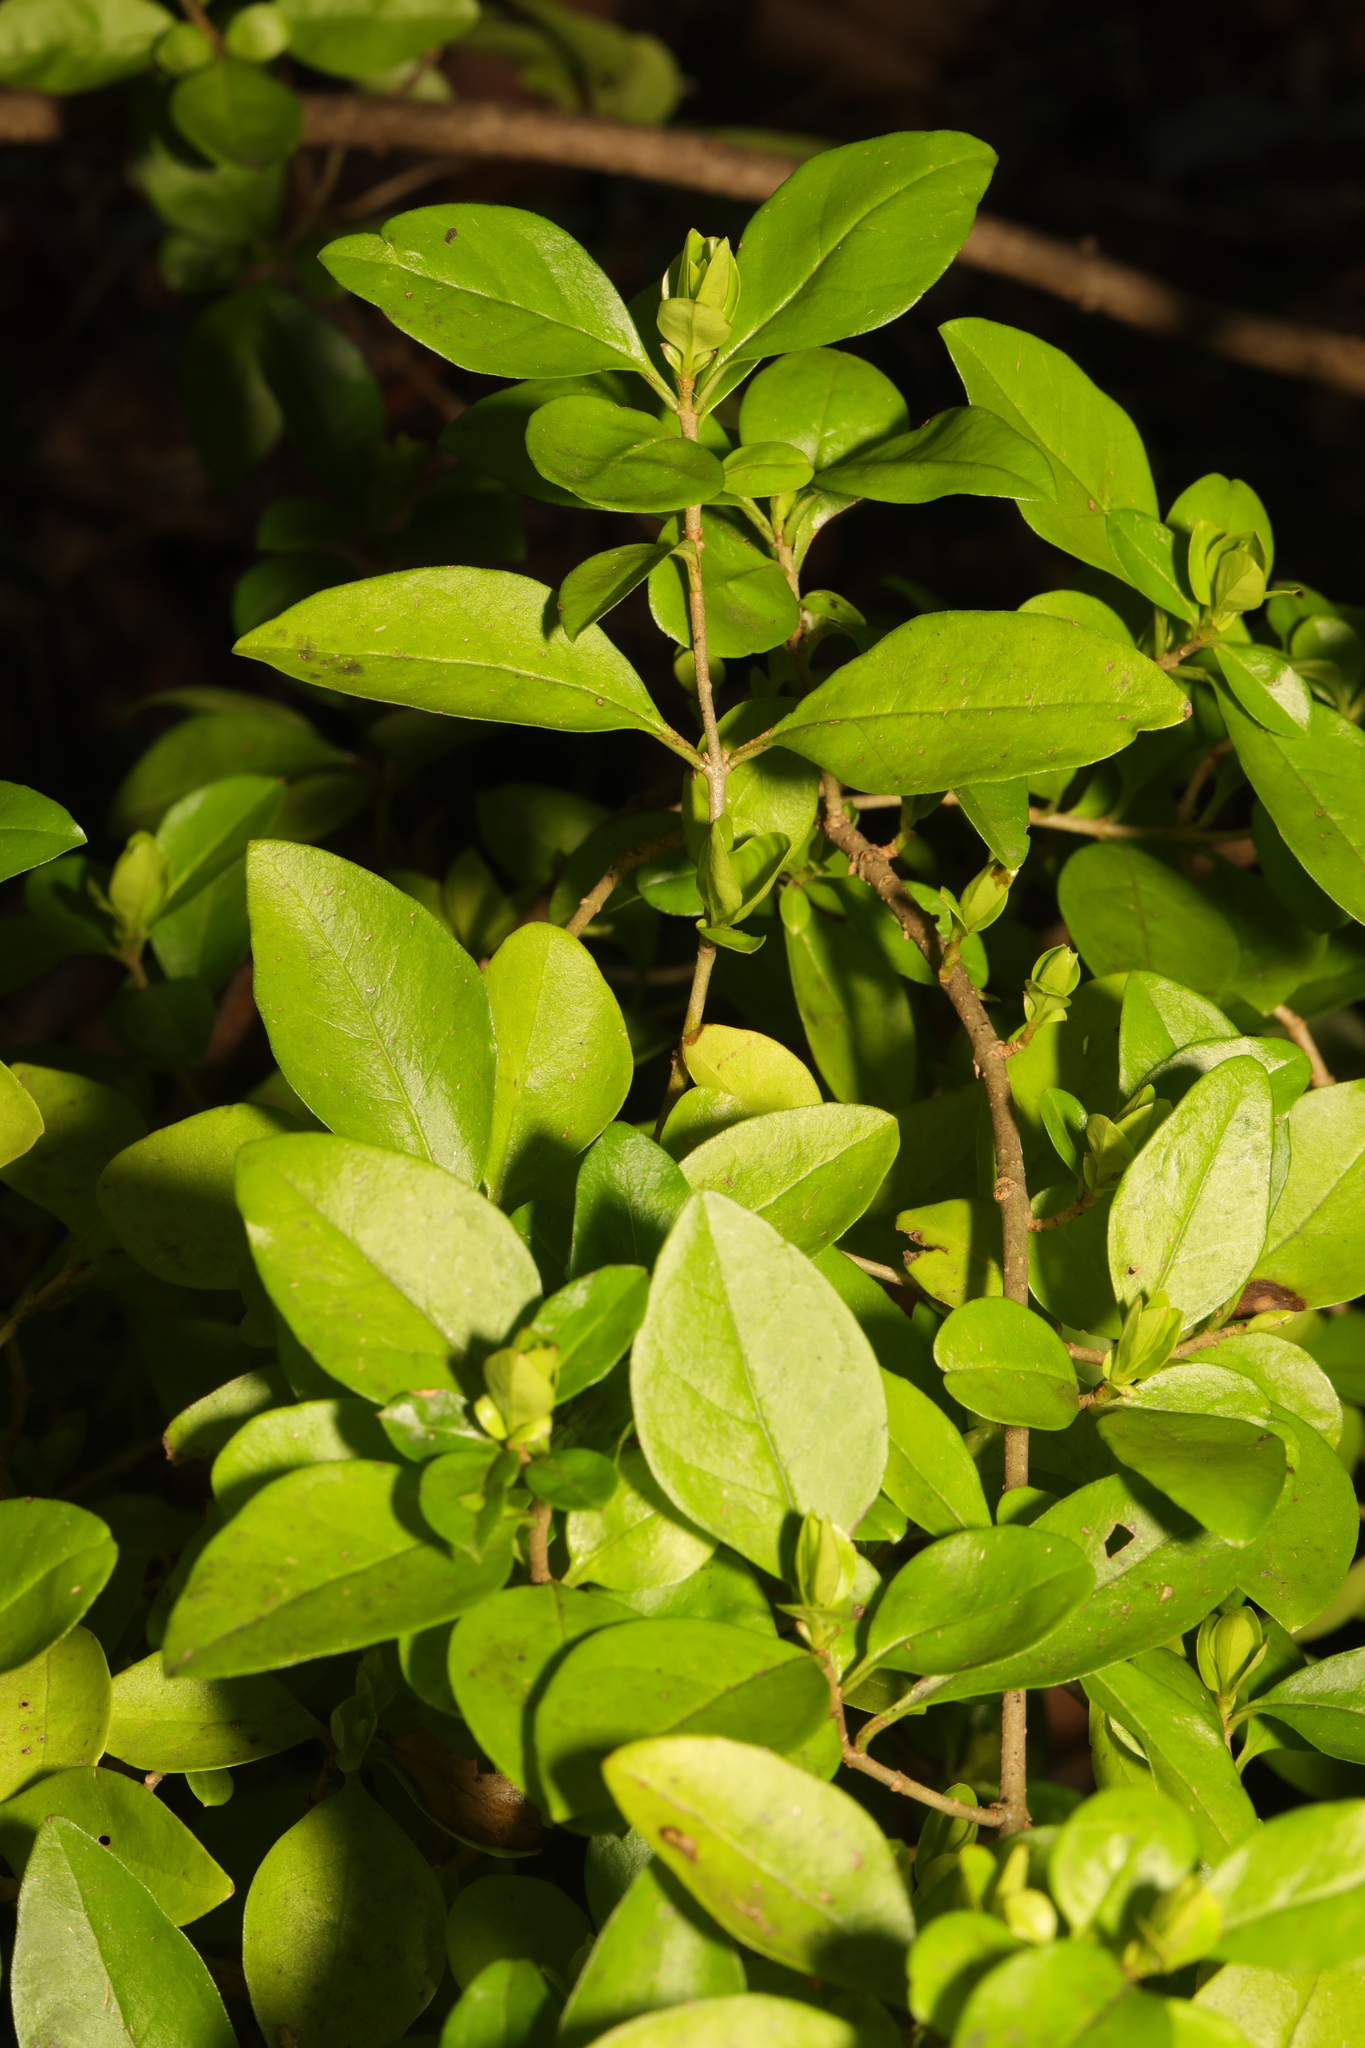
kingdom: Plantae
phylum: Tracheophyta
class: Magnoliopsida
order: Lamiales
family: Oleaceae
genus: Ligustrum
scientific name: Ligustrum ovalifolium
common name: California privet
